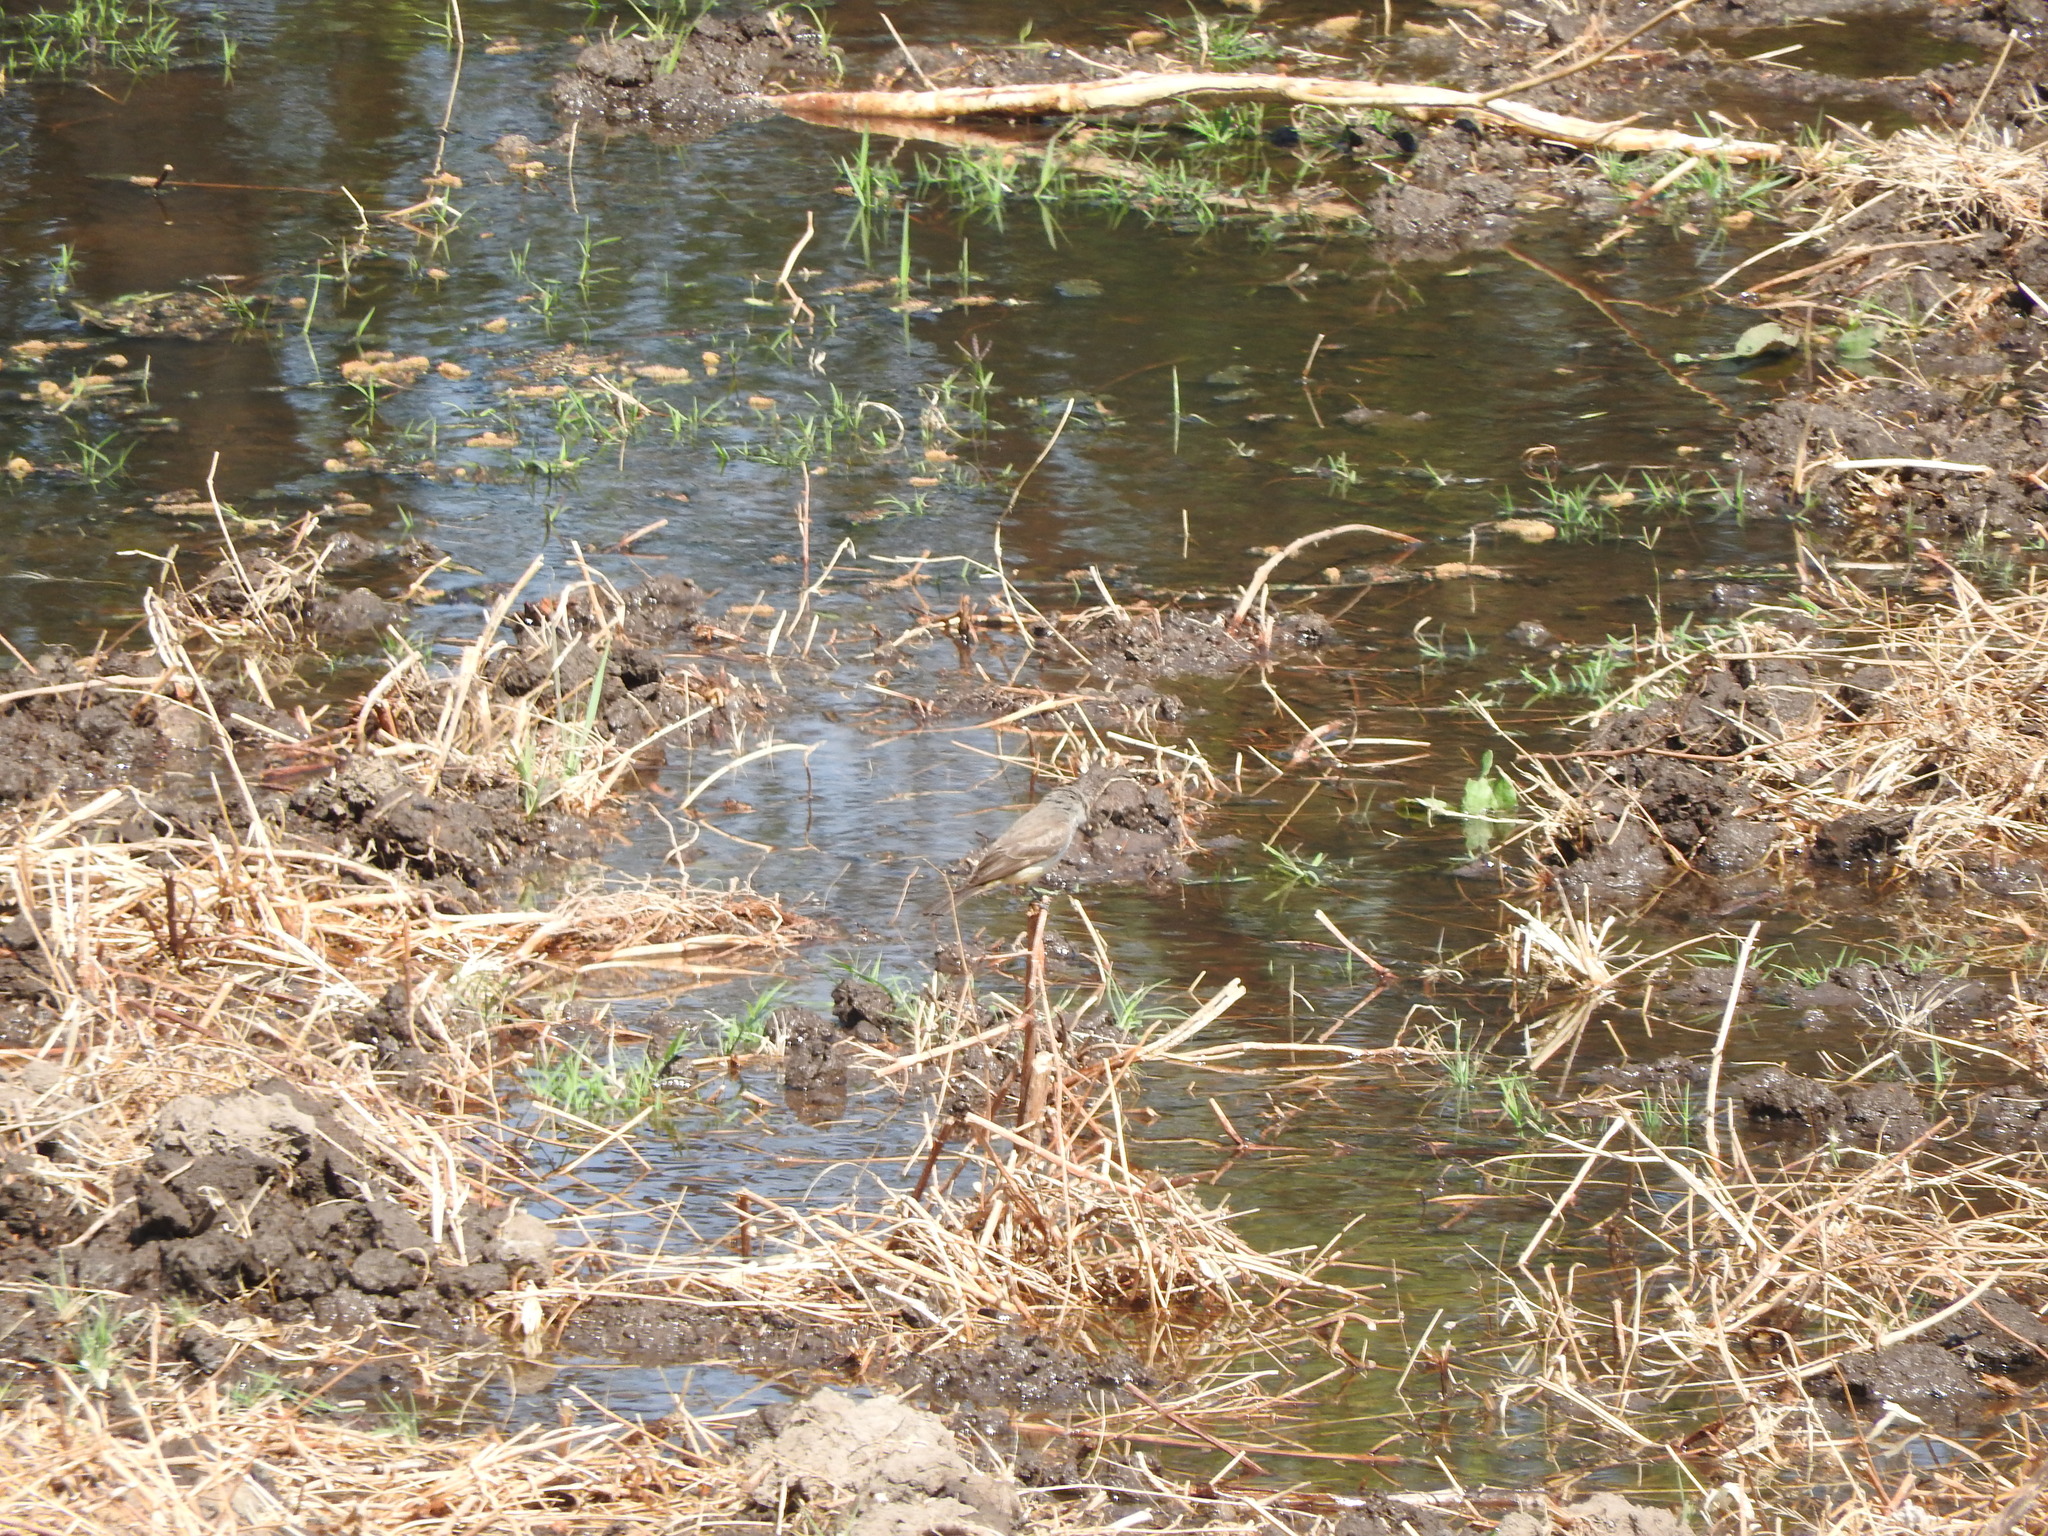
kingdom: Animalia
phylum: Chordata
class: Aves
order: Passeriformes
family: Tyrannidae
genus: Pyrocephalus
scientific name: Pyrocephalus rubinus
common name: Vermilion flycatcher
